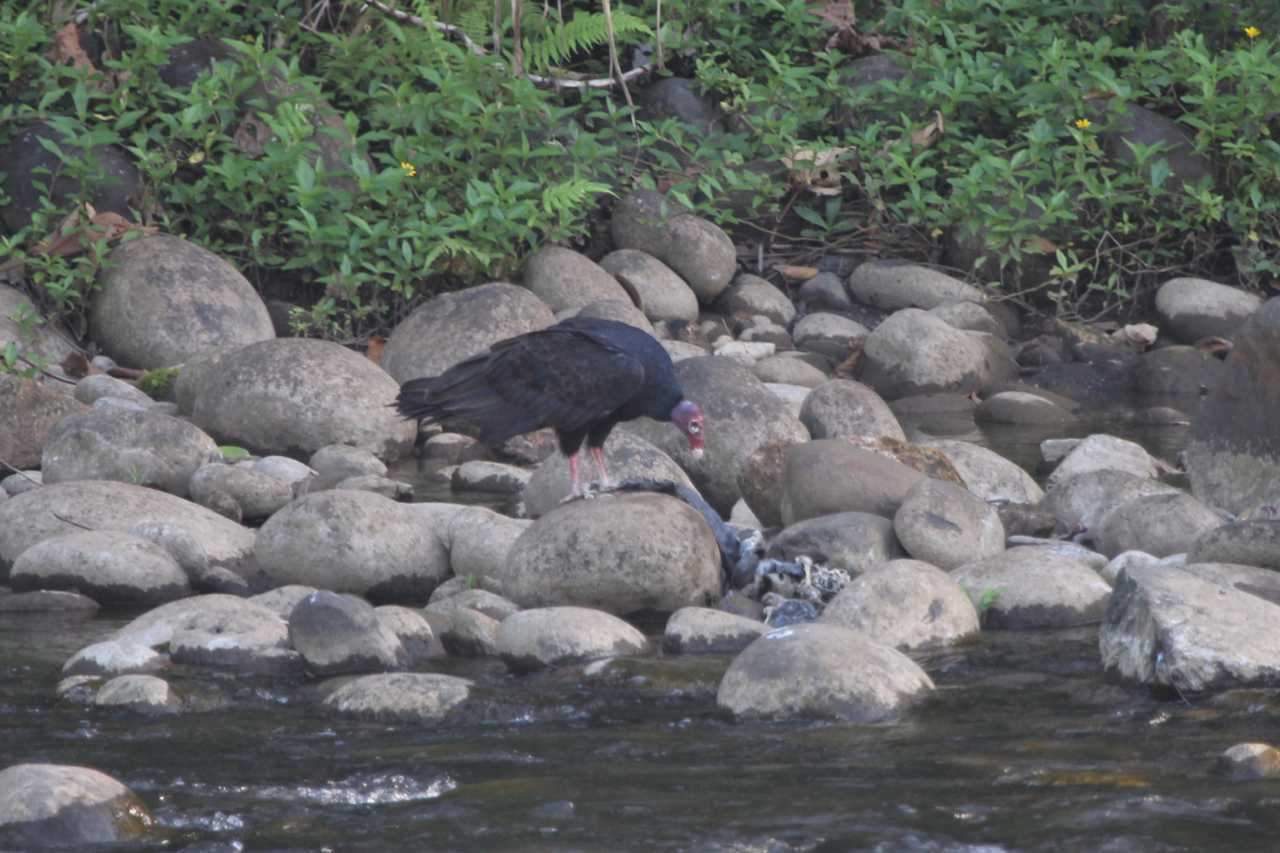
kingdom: Animalia
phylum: Chordata
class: Aves
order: Accipitriformes
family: Cathartidae
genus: Cathartes
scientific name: Cathartes aura
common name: Turkey vulture
